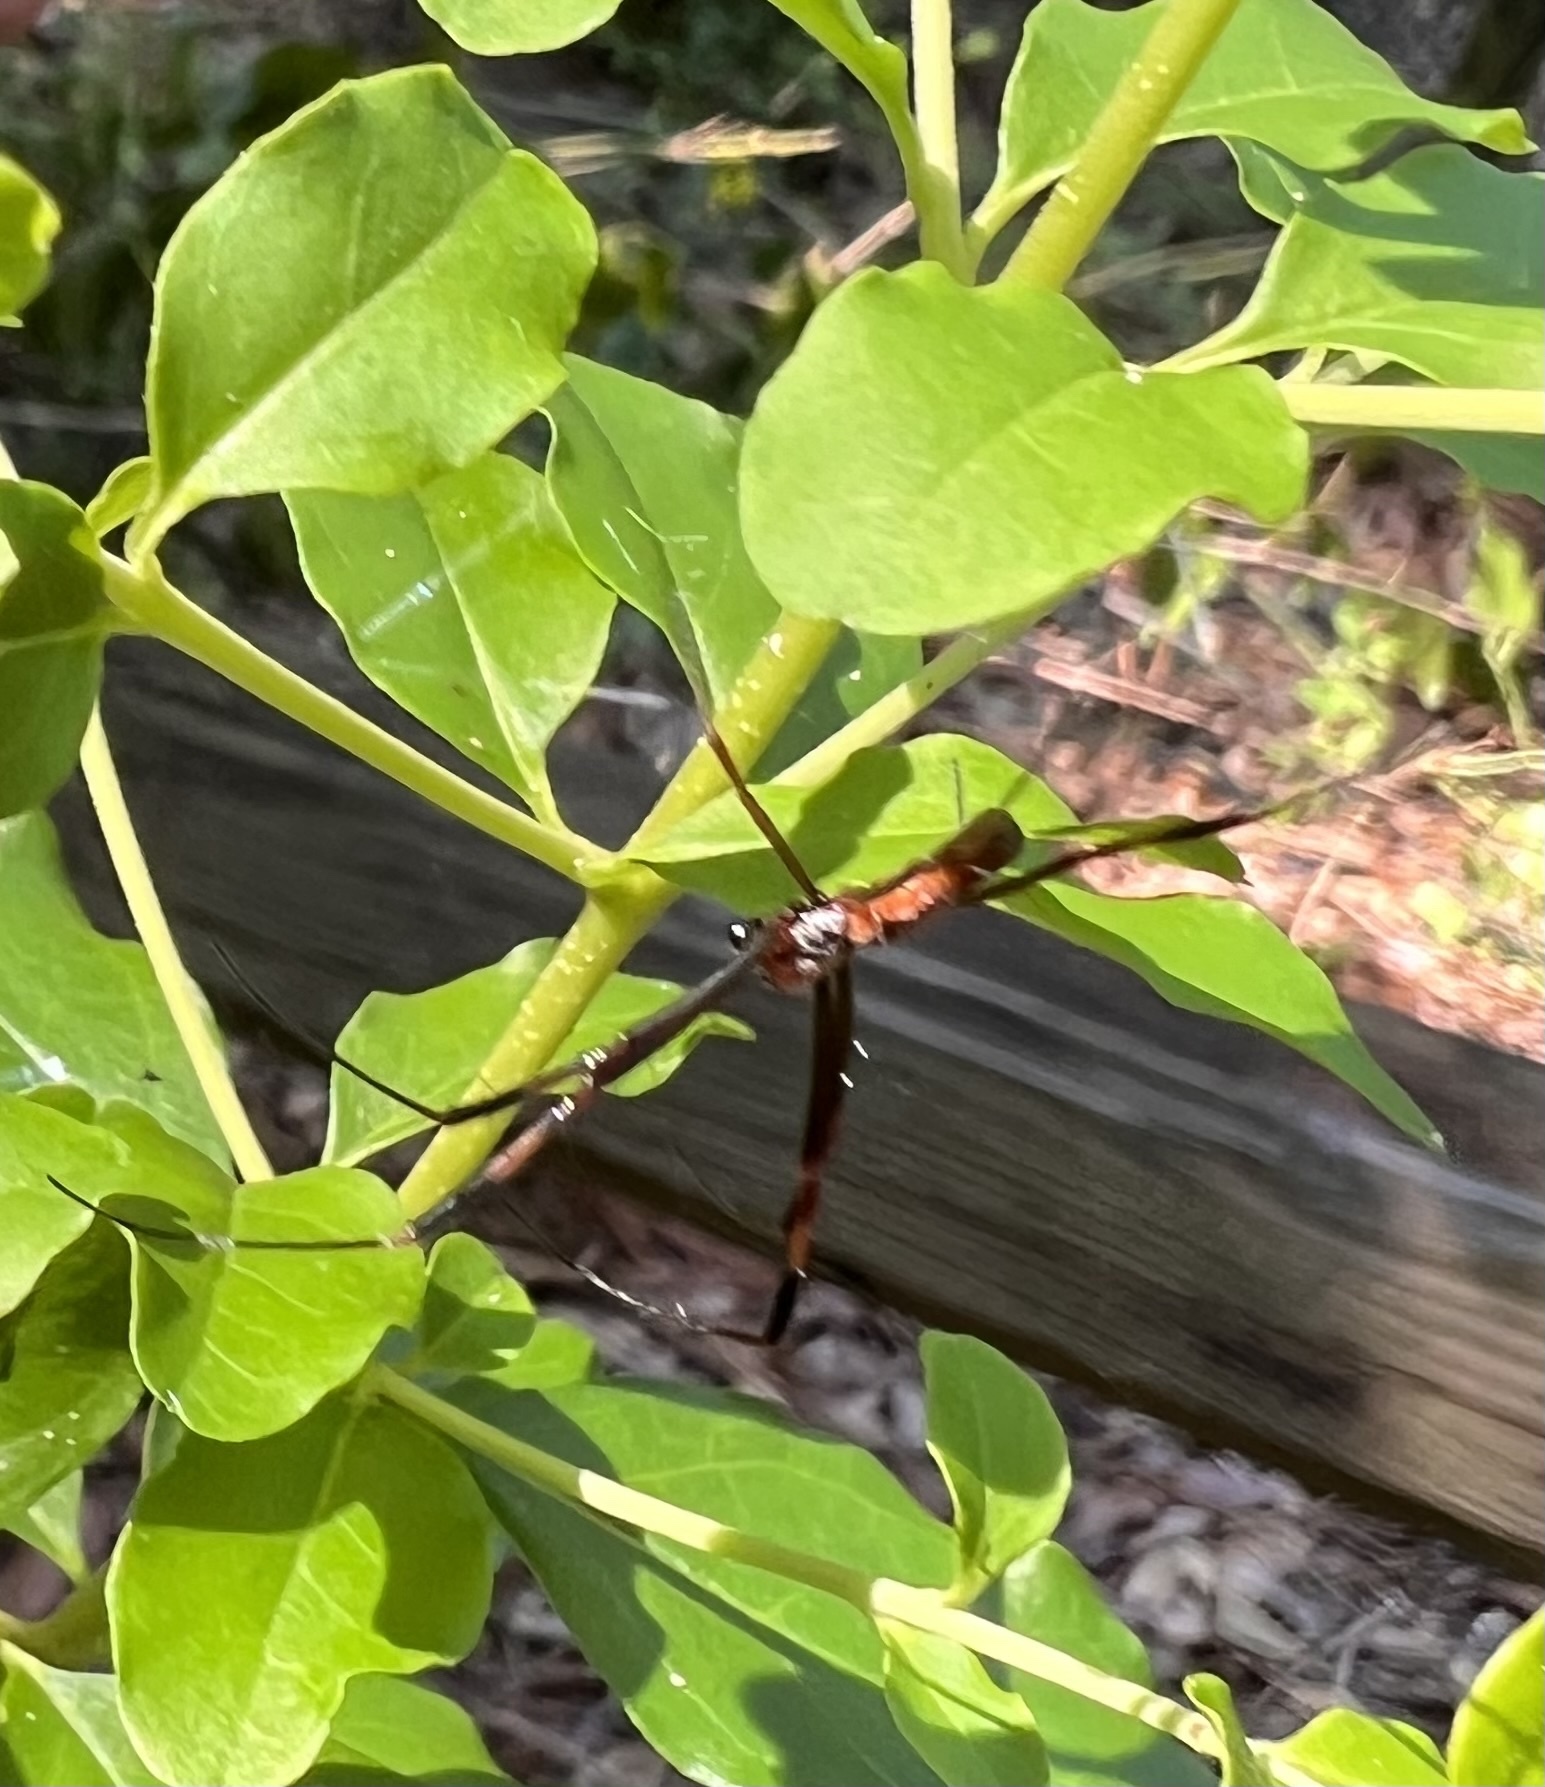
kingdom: Animalia
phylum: Arthropoda
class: Arachnida
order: Araneae
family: Araneidae
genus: Trichonephila
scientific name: Trichonephila clavipes
